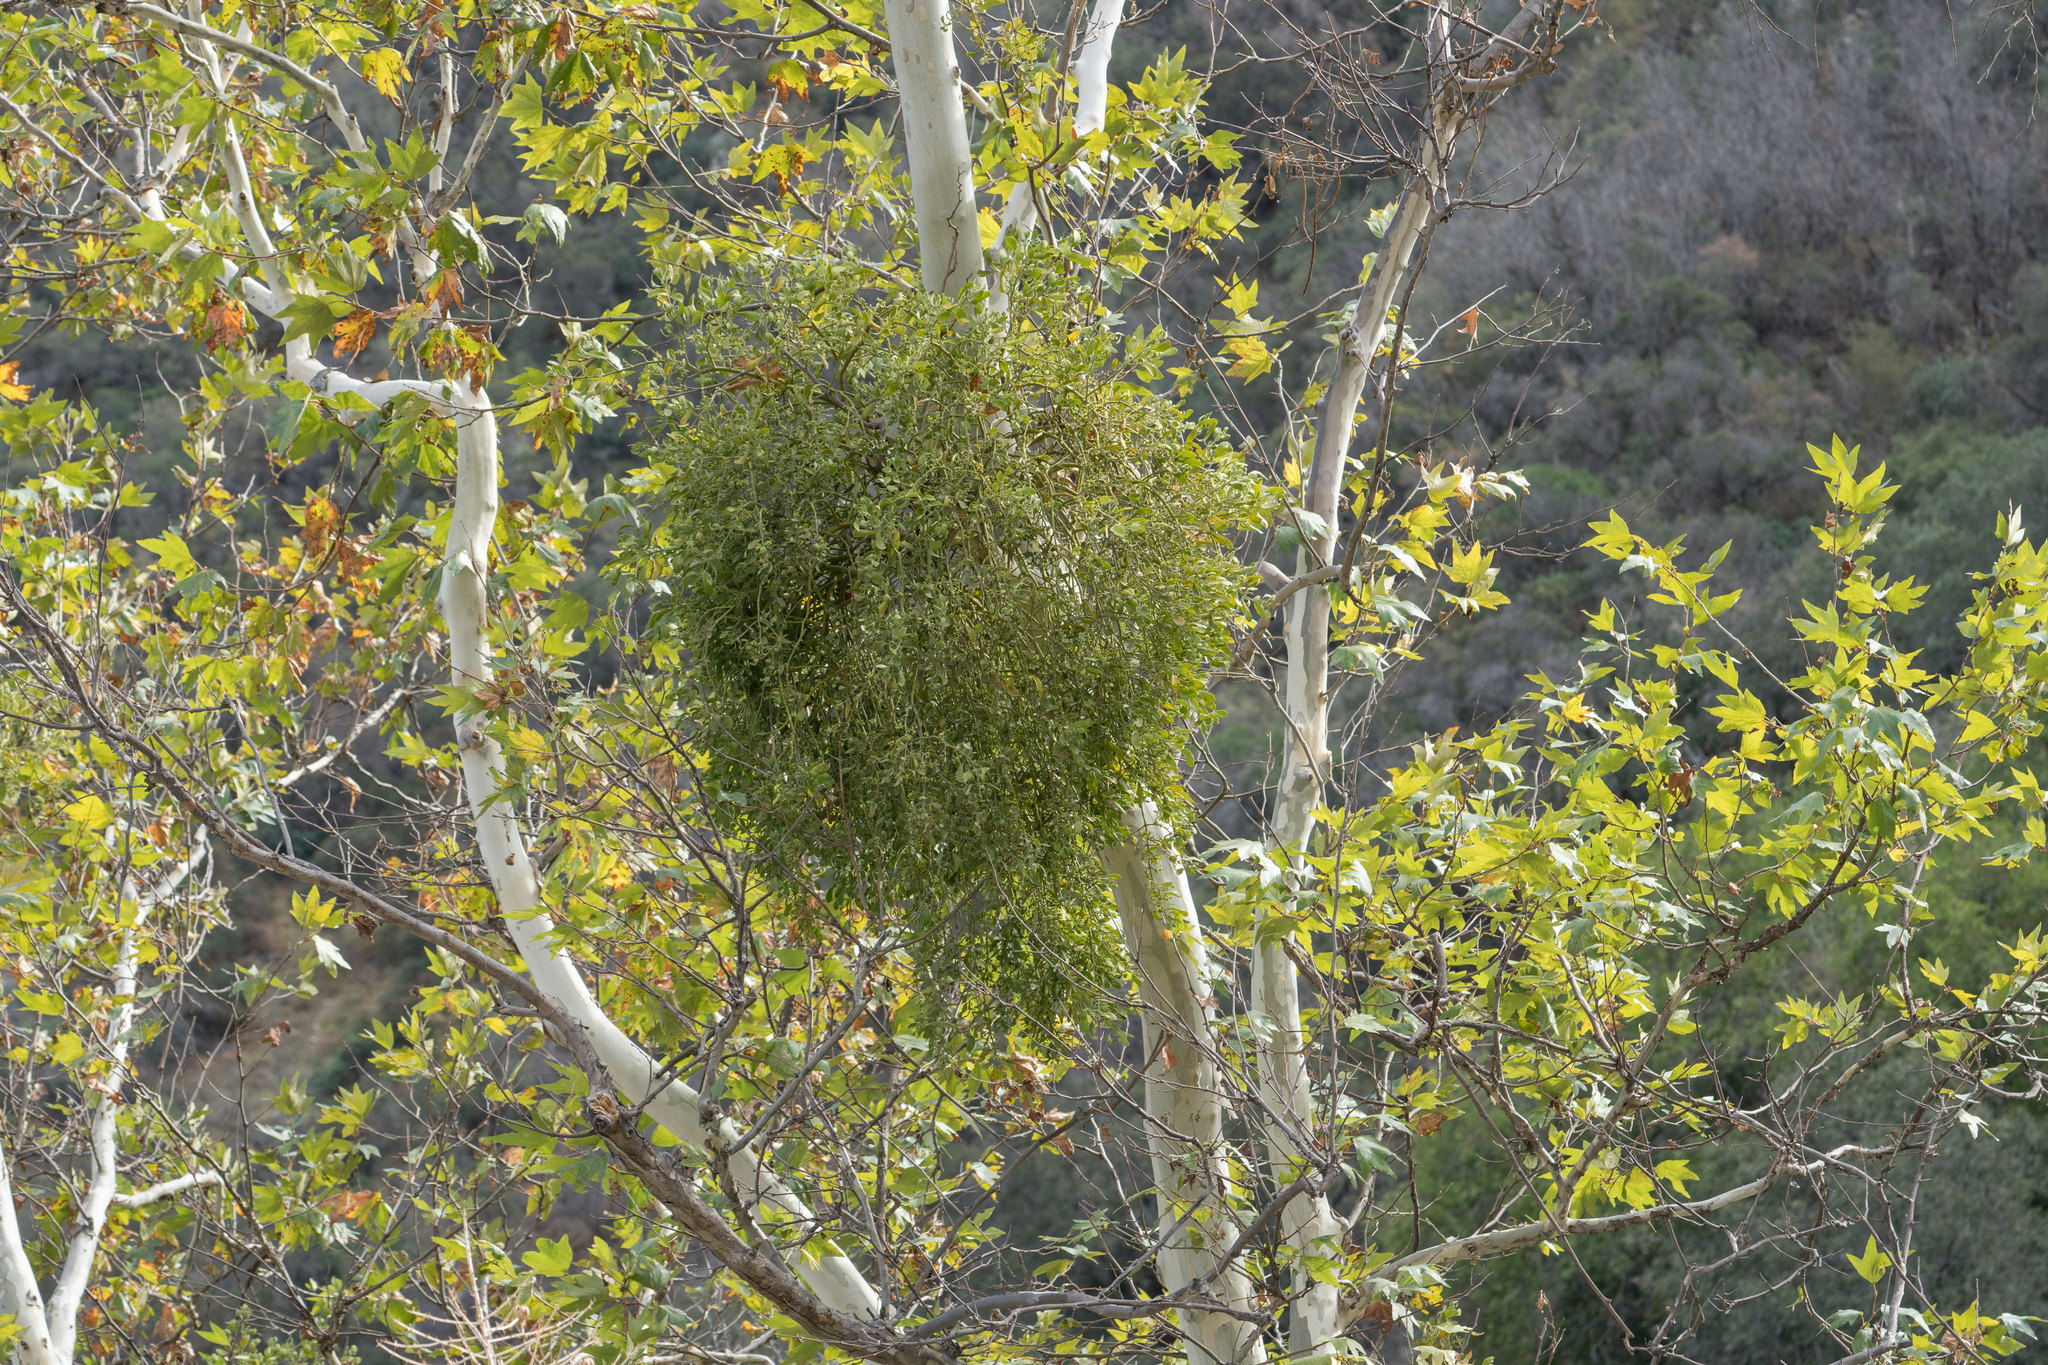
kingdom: Plantae
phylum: Tracheophyta
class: Magnoliopsida
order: Santalales
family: Viscaceae
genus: Phoradendron
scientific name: Phoradendron
